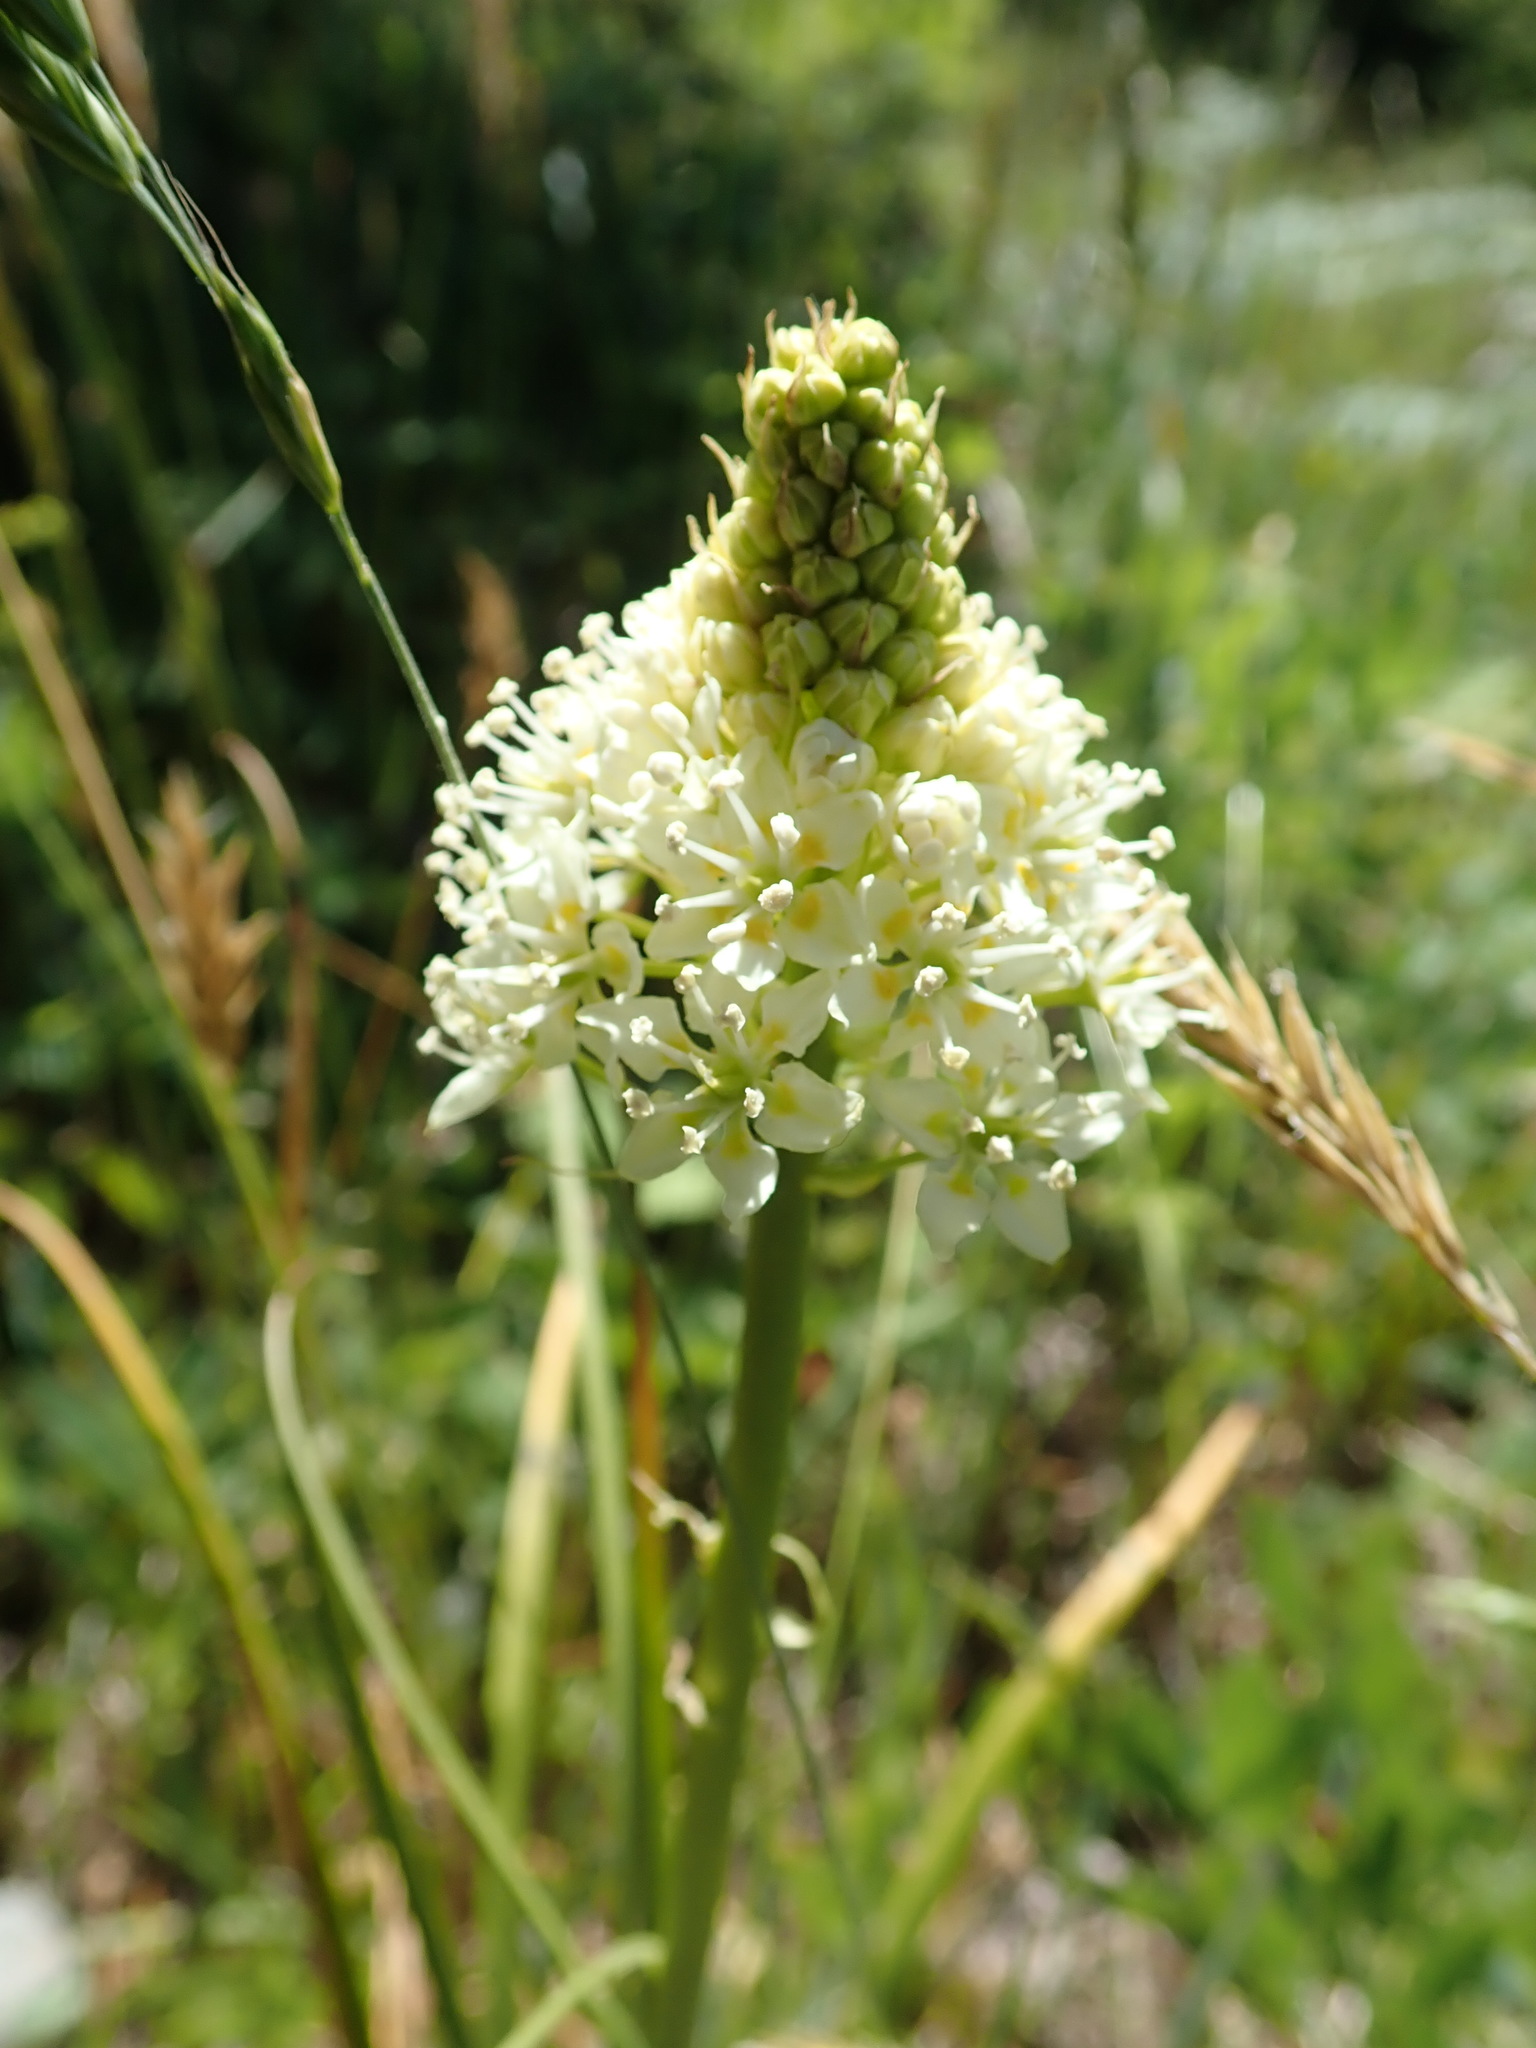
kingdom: Plantae
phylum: Tracheophyta
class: Liliopsida
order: Liliales
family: Melanthiaceae
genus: Toxicoscordion
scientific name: Toxicoscordion venenosum
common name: Meadow death camas
